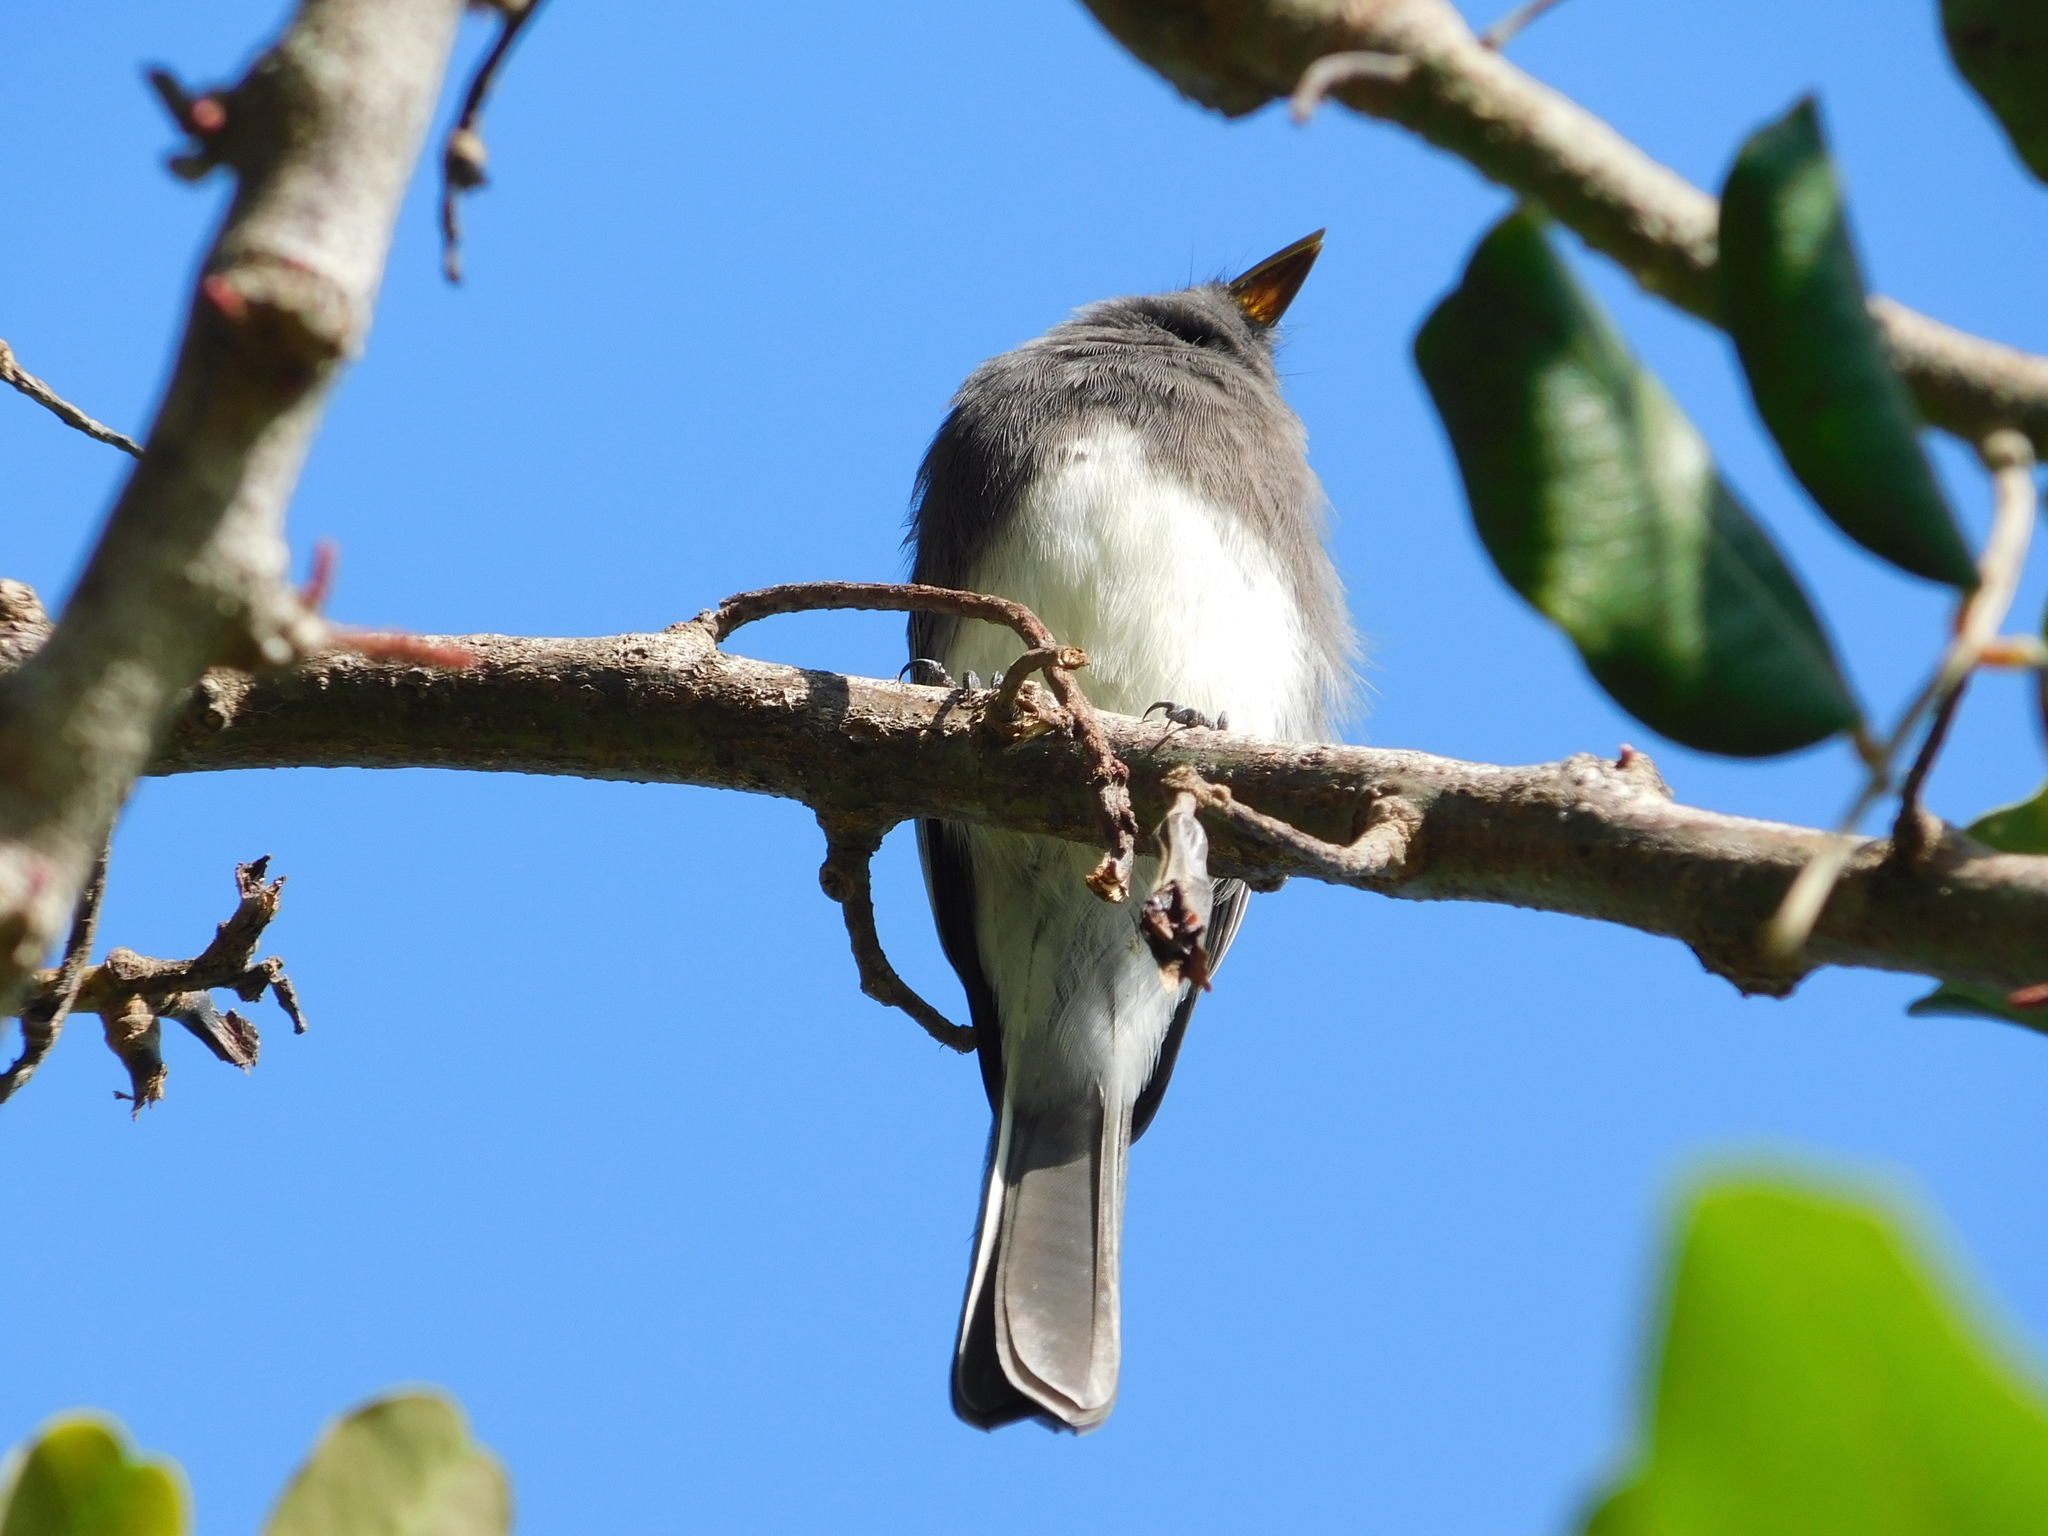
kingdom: Animalia
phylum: Chordata
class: Aves
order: Passeriformes
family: Tyrannidae
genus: Sayornis
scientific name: Sayornis nigricans
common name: Black phoebe
